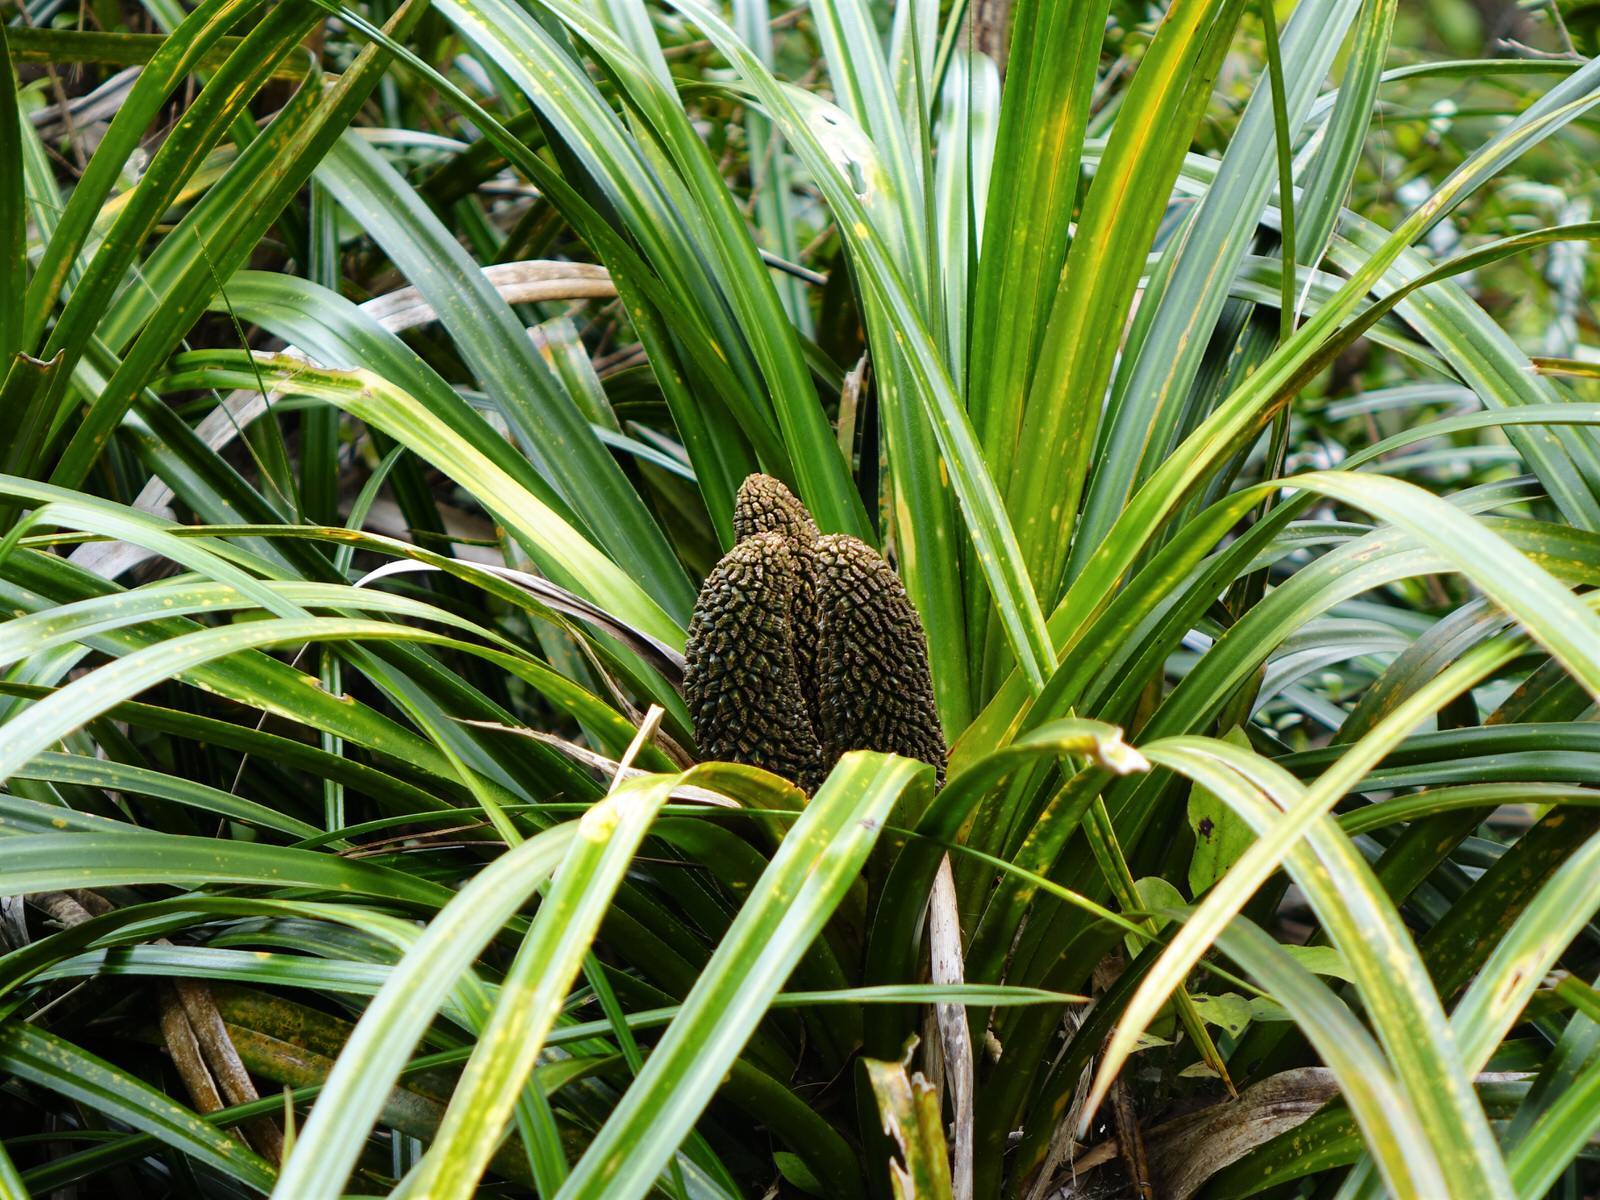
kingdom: Plantae
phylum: Tracheophyta
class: Liliopsida
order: Pandanales
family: Pandanaceae
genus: Freycinetia
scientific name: Freycinetia banksii
